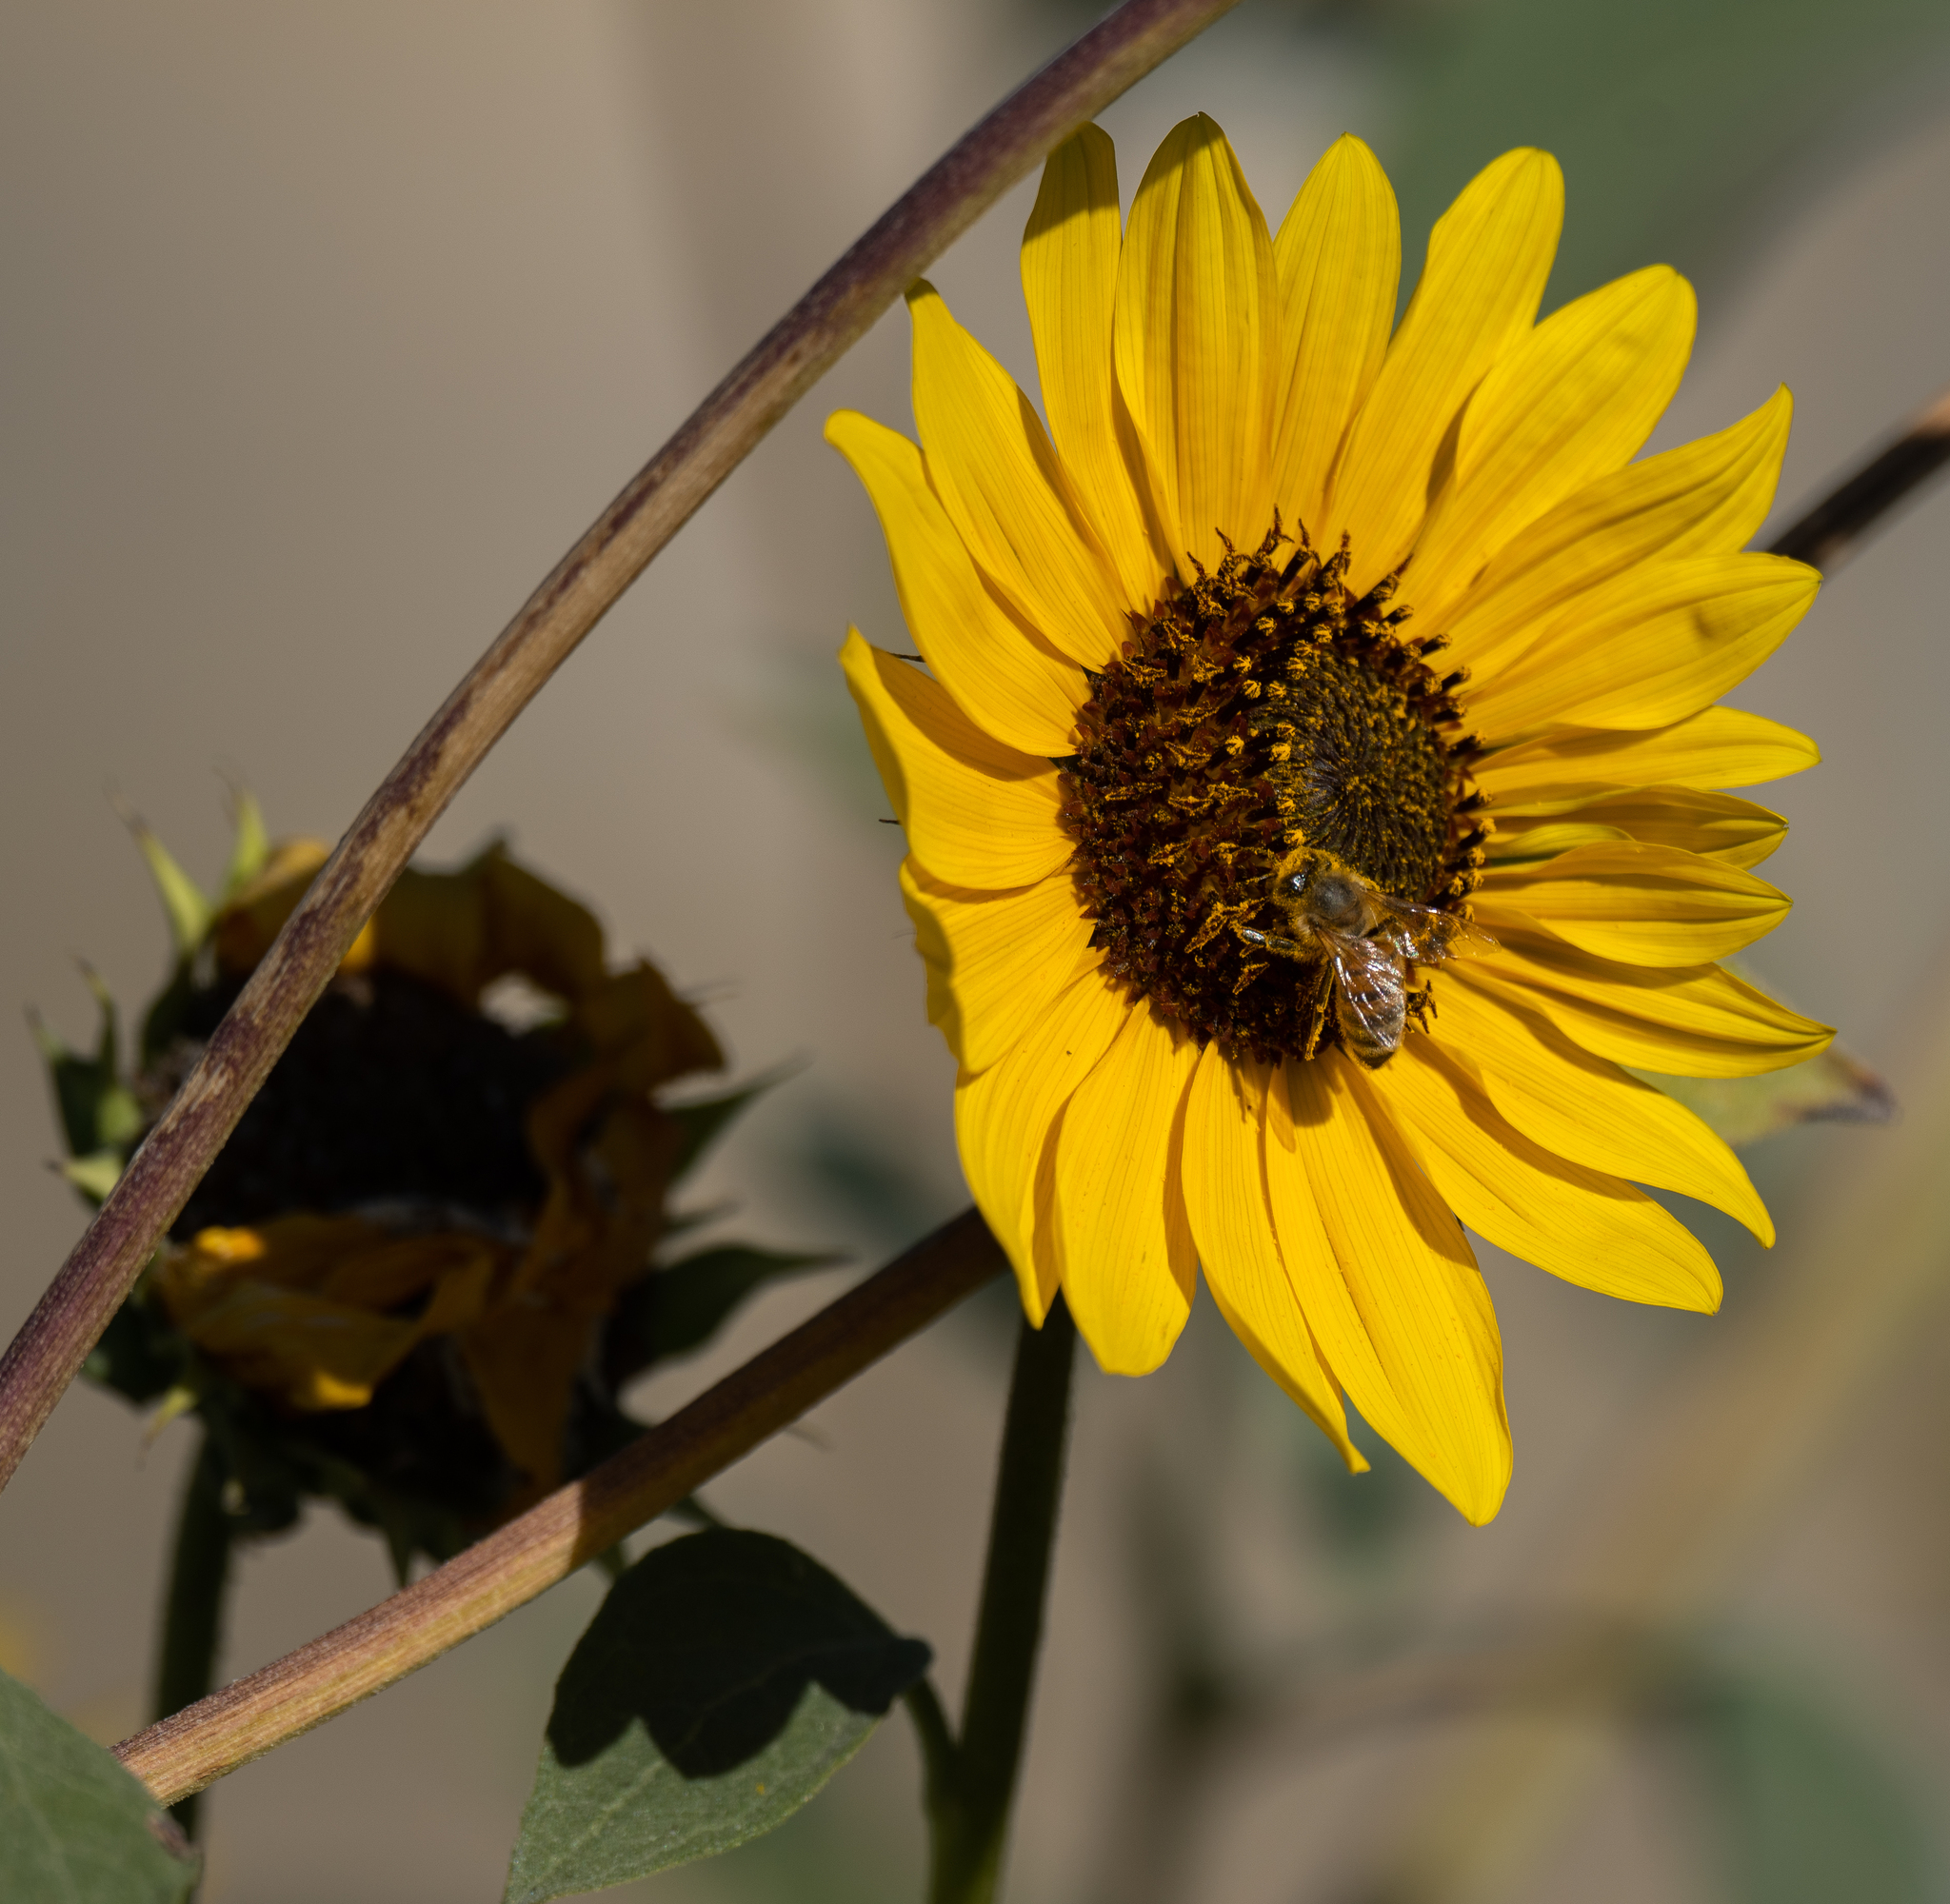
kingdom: Animalia
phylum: Arthropoda
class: Insecta
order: Hymenoptera
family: Apidae
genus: Apis
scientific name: Apis mellifera
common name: Honey bee
